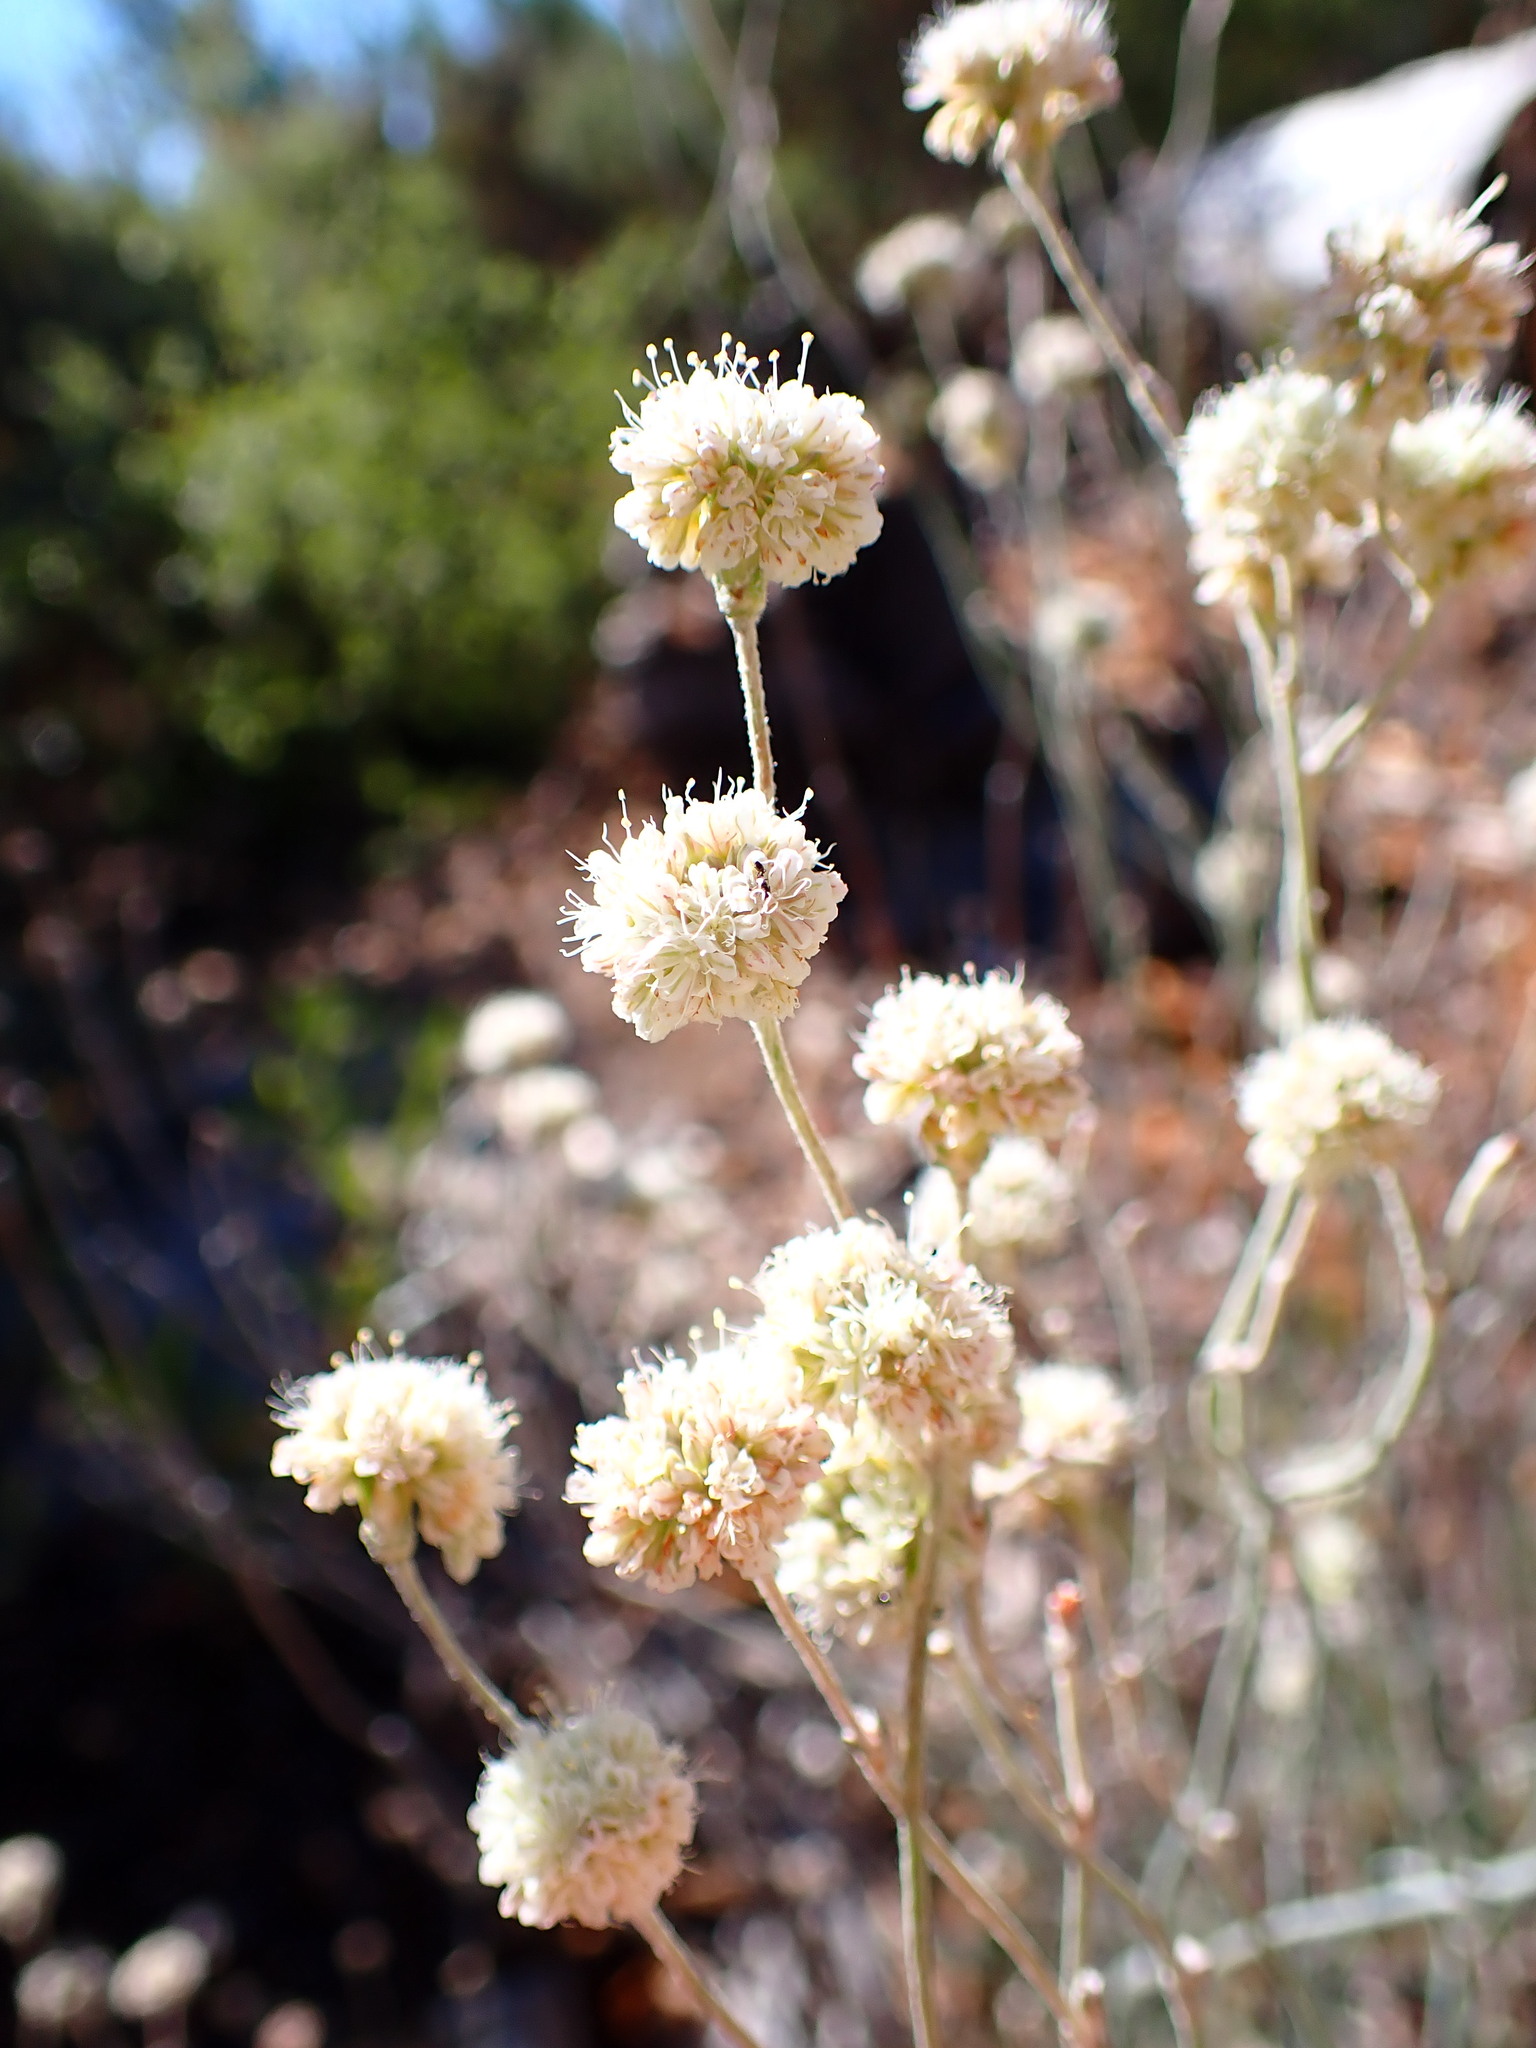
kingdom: Plantae
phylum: Tracheophyta
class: Magnoliopsida
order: Caryophyllales
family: Polygonaceae
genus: Eriogonum
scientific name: Eriogonum nudum
